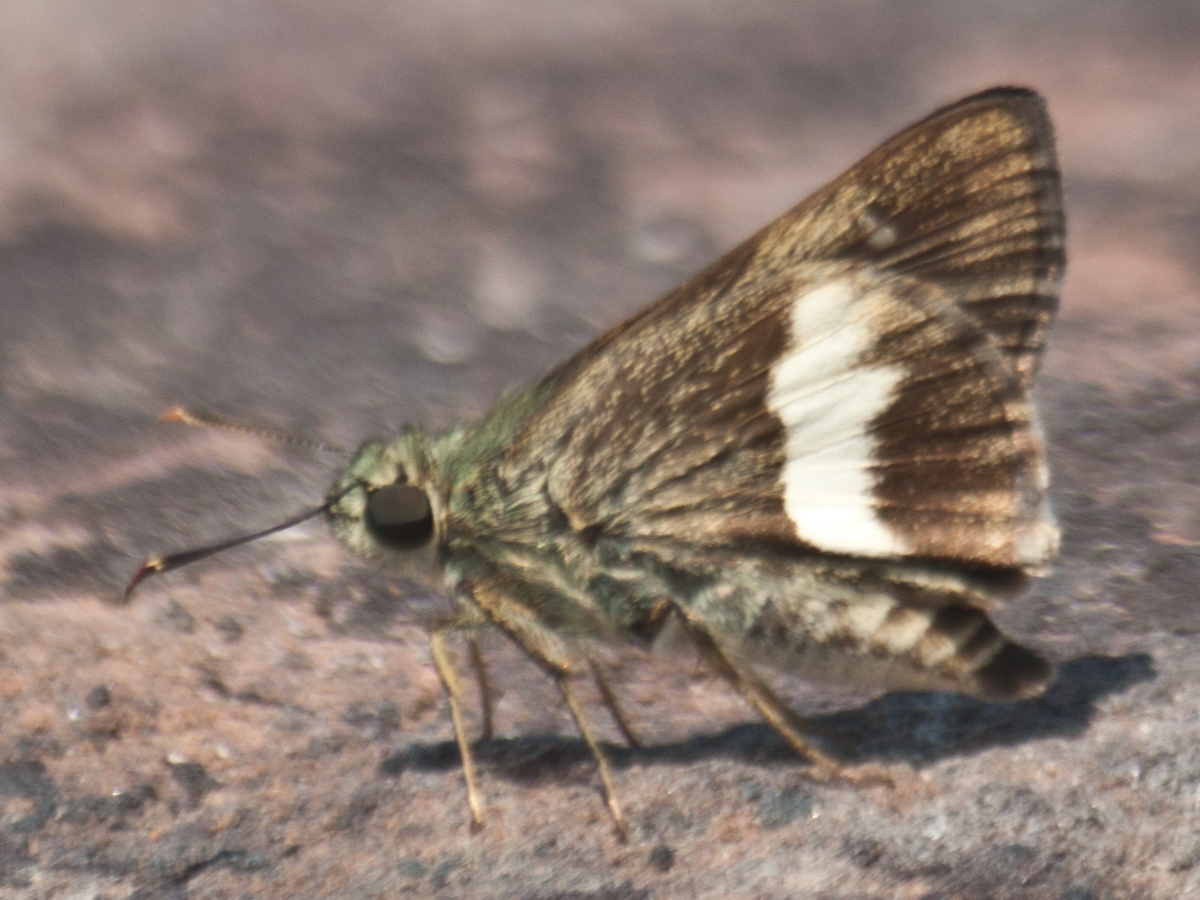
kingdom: Animalia
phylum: Arthropoda
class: Insecta
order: Lepidoptera
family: Hesperiidae
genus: Halpe
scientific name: Halpe zola
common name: Long-banded ace
